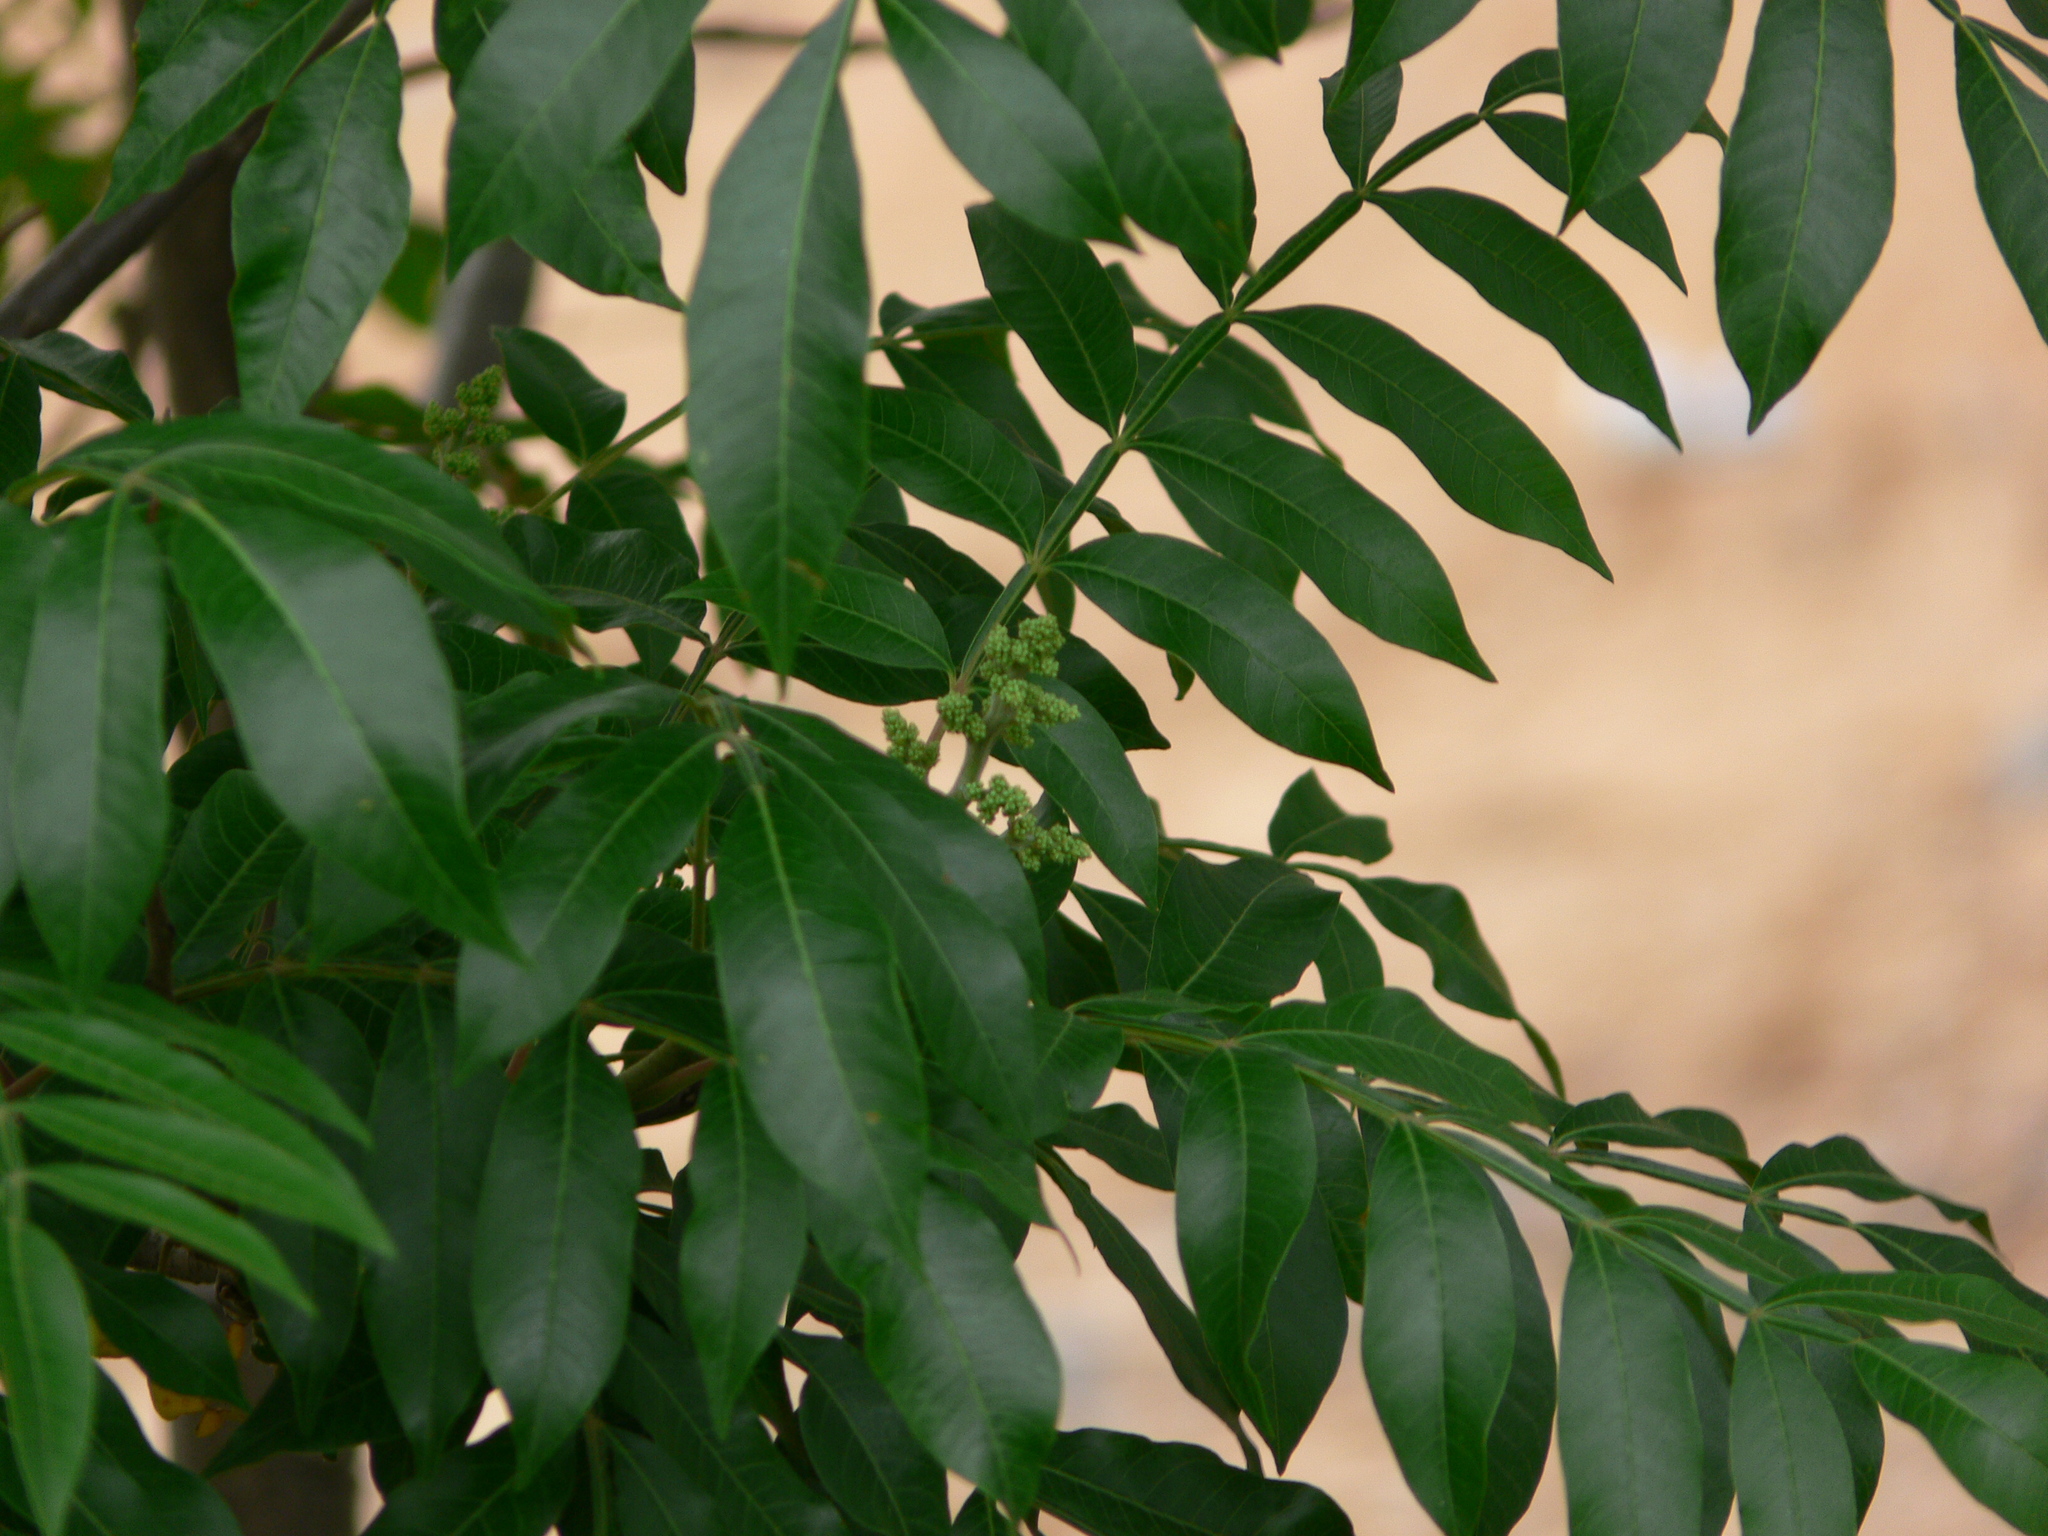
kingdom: Plantae
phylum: Tracheophyta
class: Magnoliopsida
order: Sapindales
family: Anacardiaceae
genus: Rhus
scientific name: Rhus copallina
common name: Shining sumac
